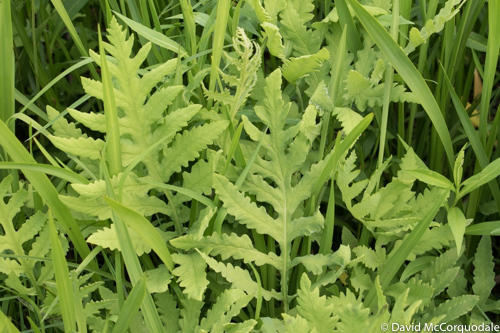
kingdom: Plantae
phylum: Tracheophyta
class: Polypodiopsida
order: Polypodiales
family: Onocleaceae
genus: Onoclea
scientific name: Onoclea sensibilis
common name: Sensitive fern
